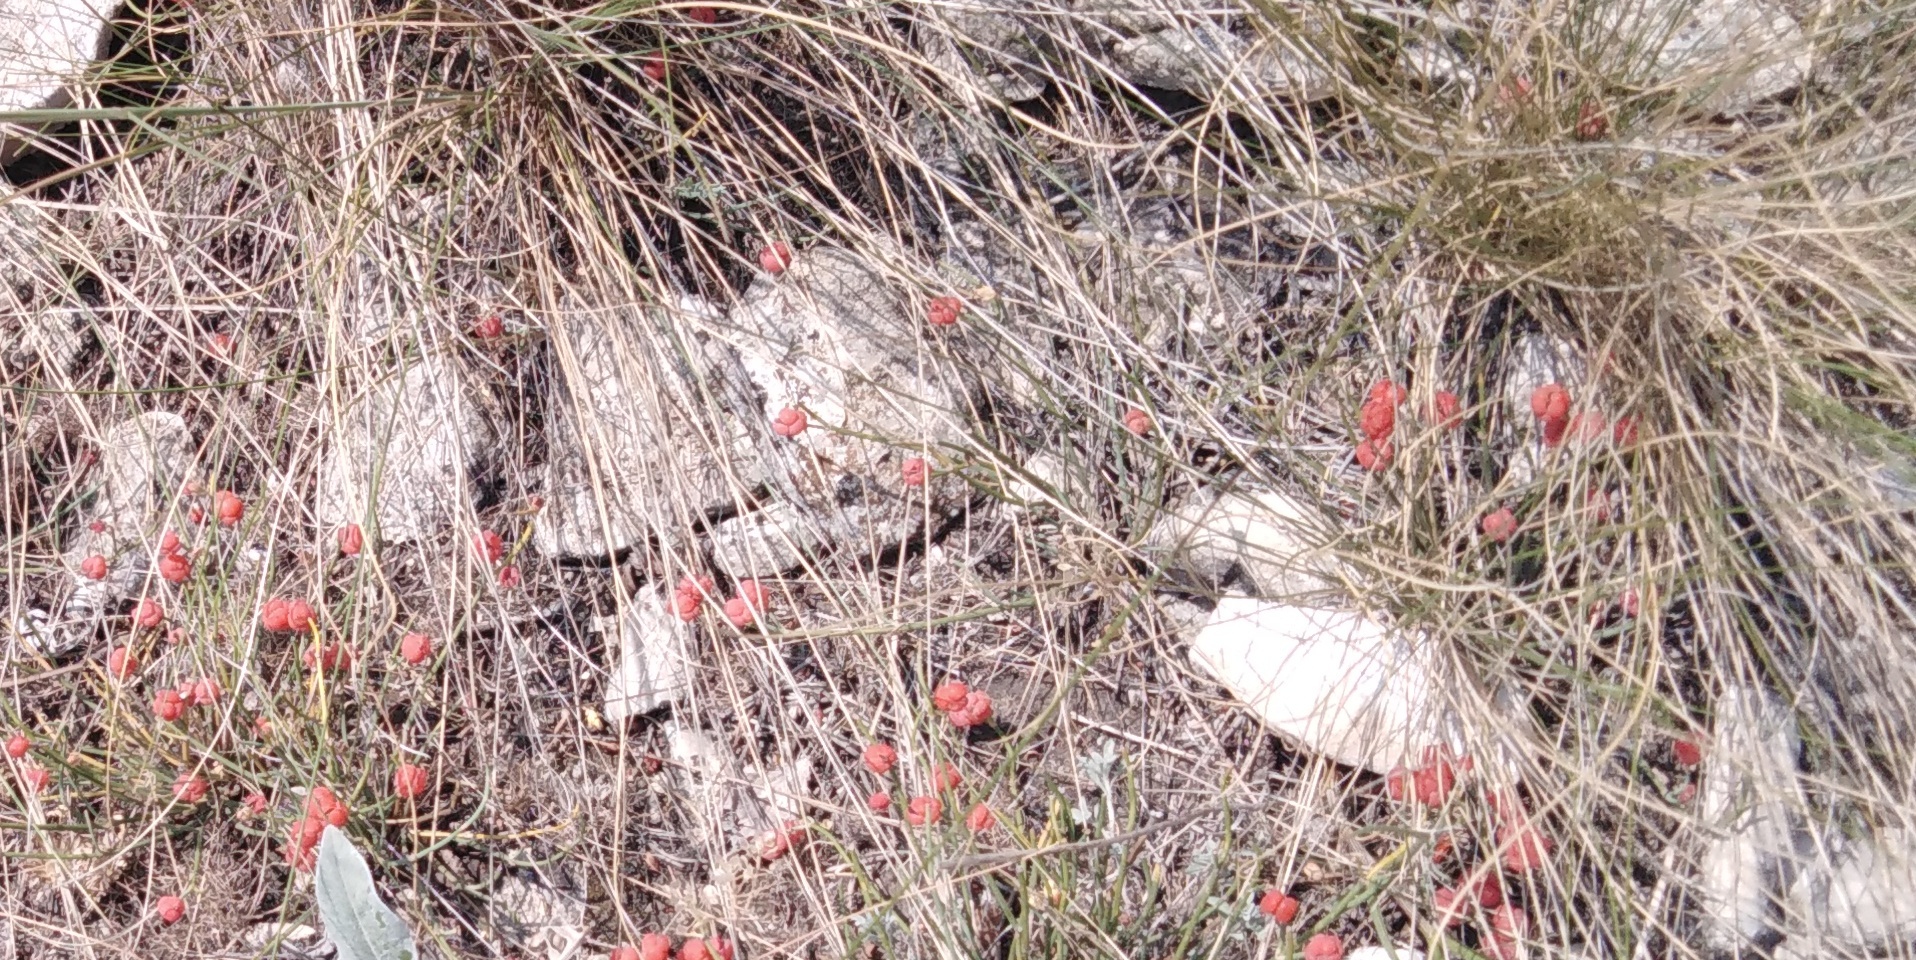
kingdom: Plantae
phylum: Tracheophyta
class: Gnetopsida
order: Ephedrales
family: Ephedraceae
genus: Ephedra
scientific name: Ephedra distachya
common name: Sea grape
